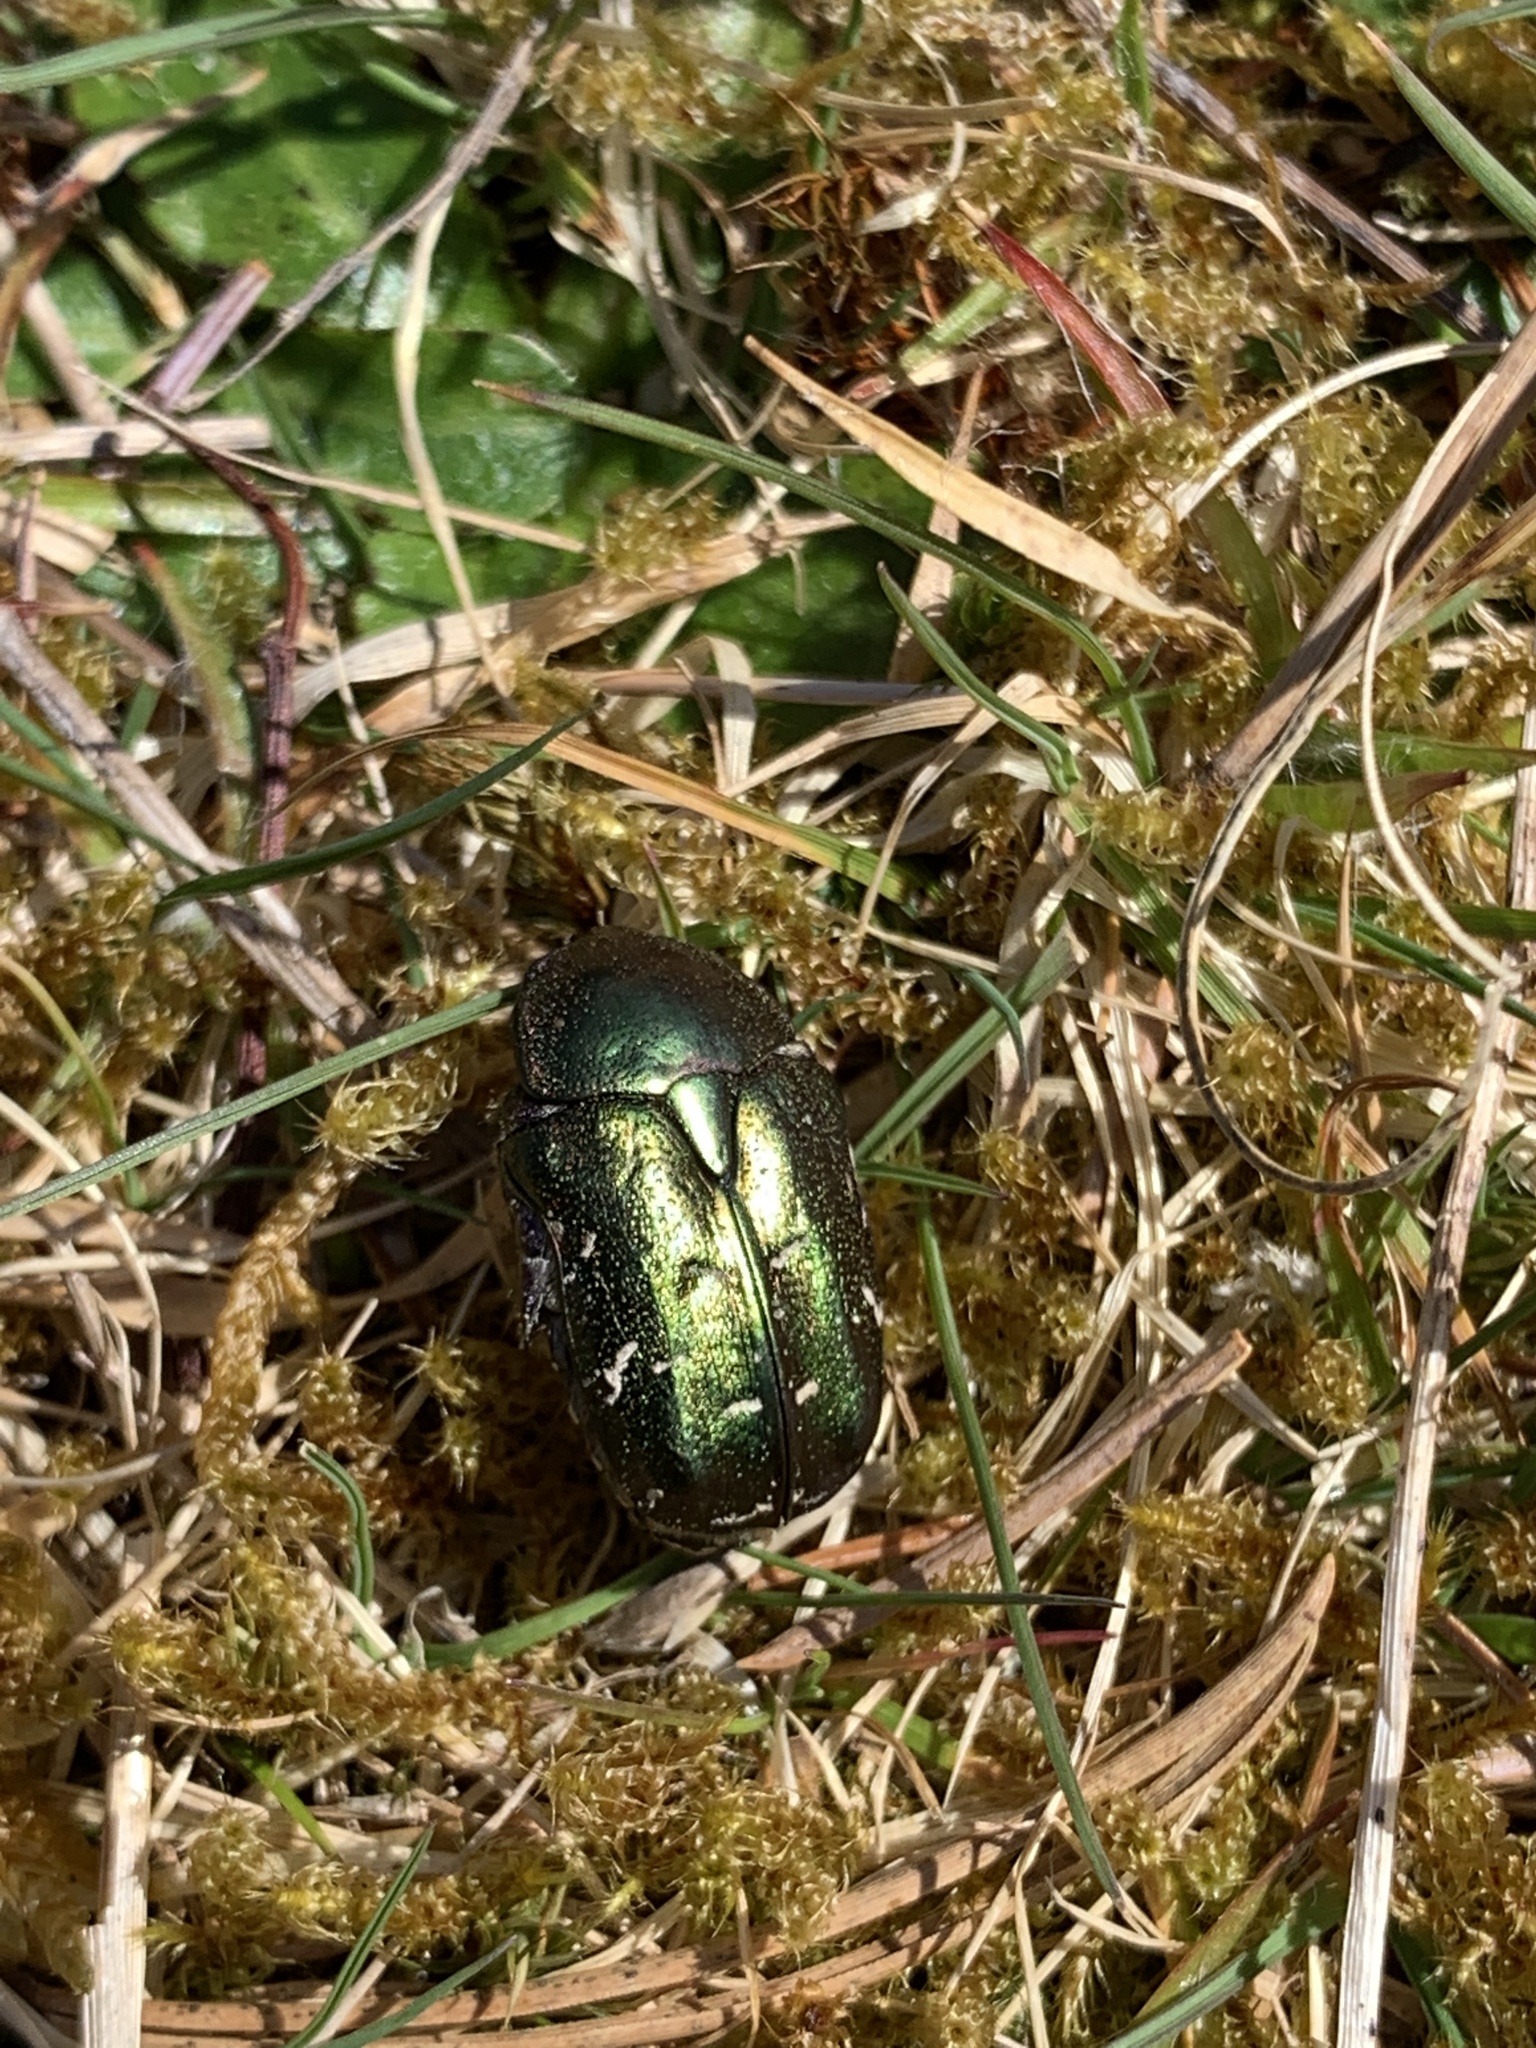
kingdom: Animalia
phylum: Arthropoda
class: Insecta
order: Coleoptera
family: Scarabaeidae
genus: Protaetia
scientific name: Protaetia cuprea
